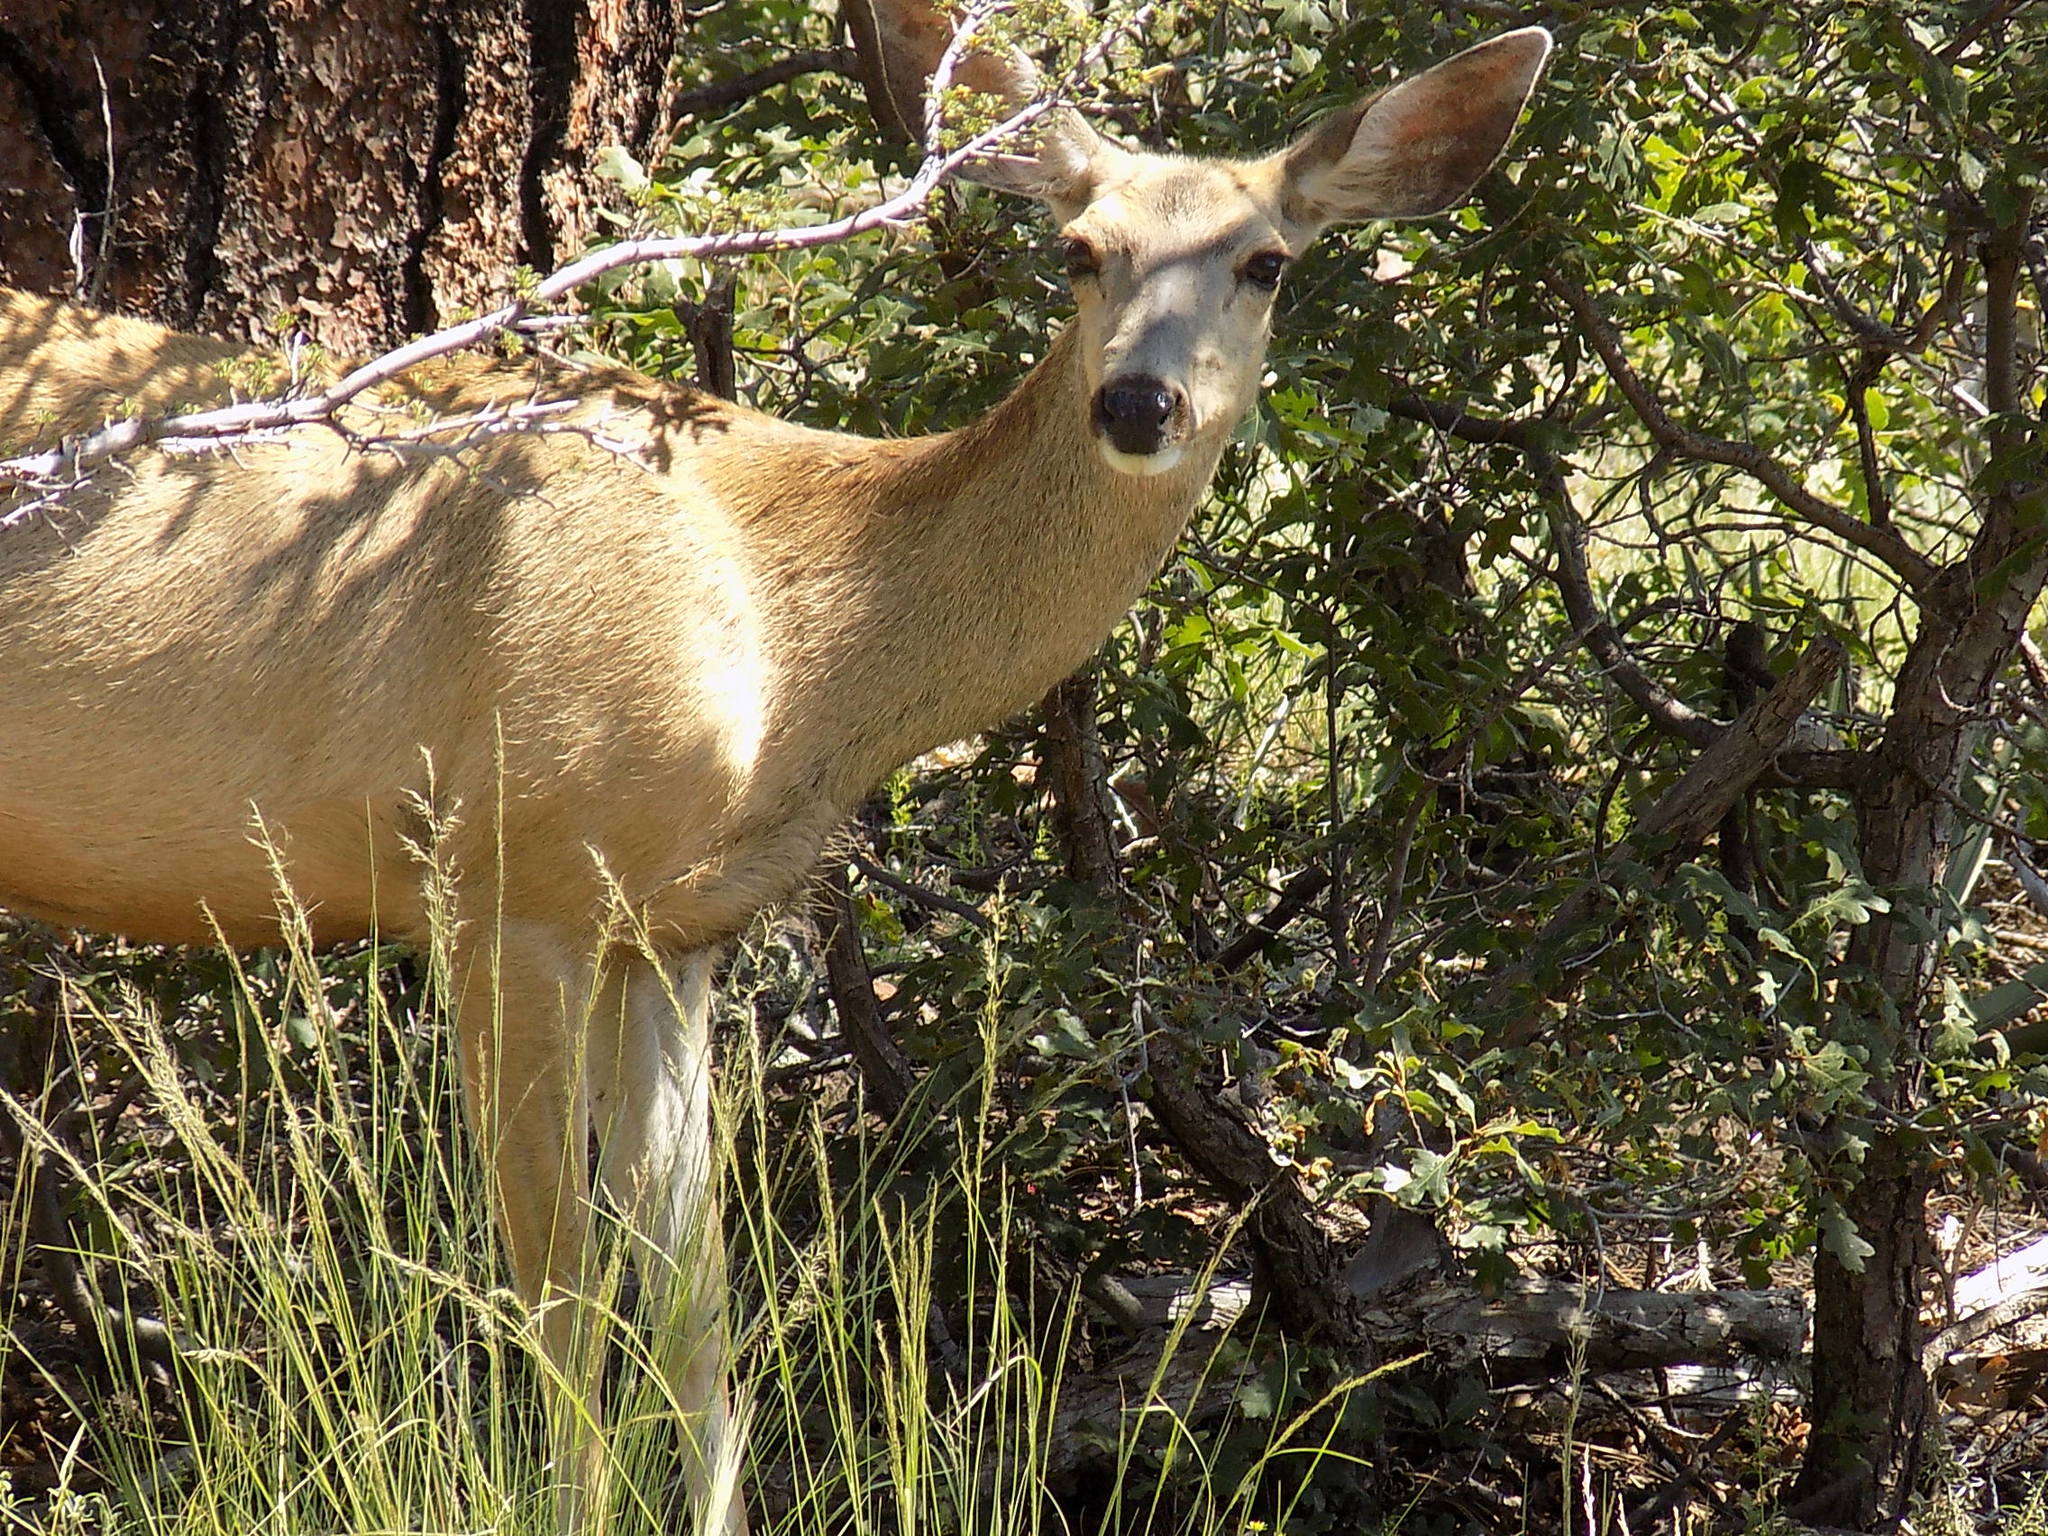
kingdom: Animalia
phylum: Chordata
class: Mammalia
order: Artiodactyla
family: Cervidae
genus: Odocoileus
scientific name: Odocoileus hemionus
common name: Mule deer
